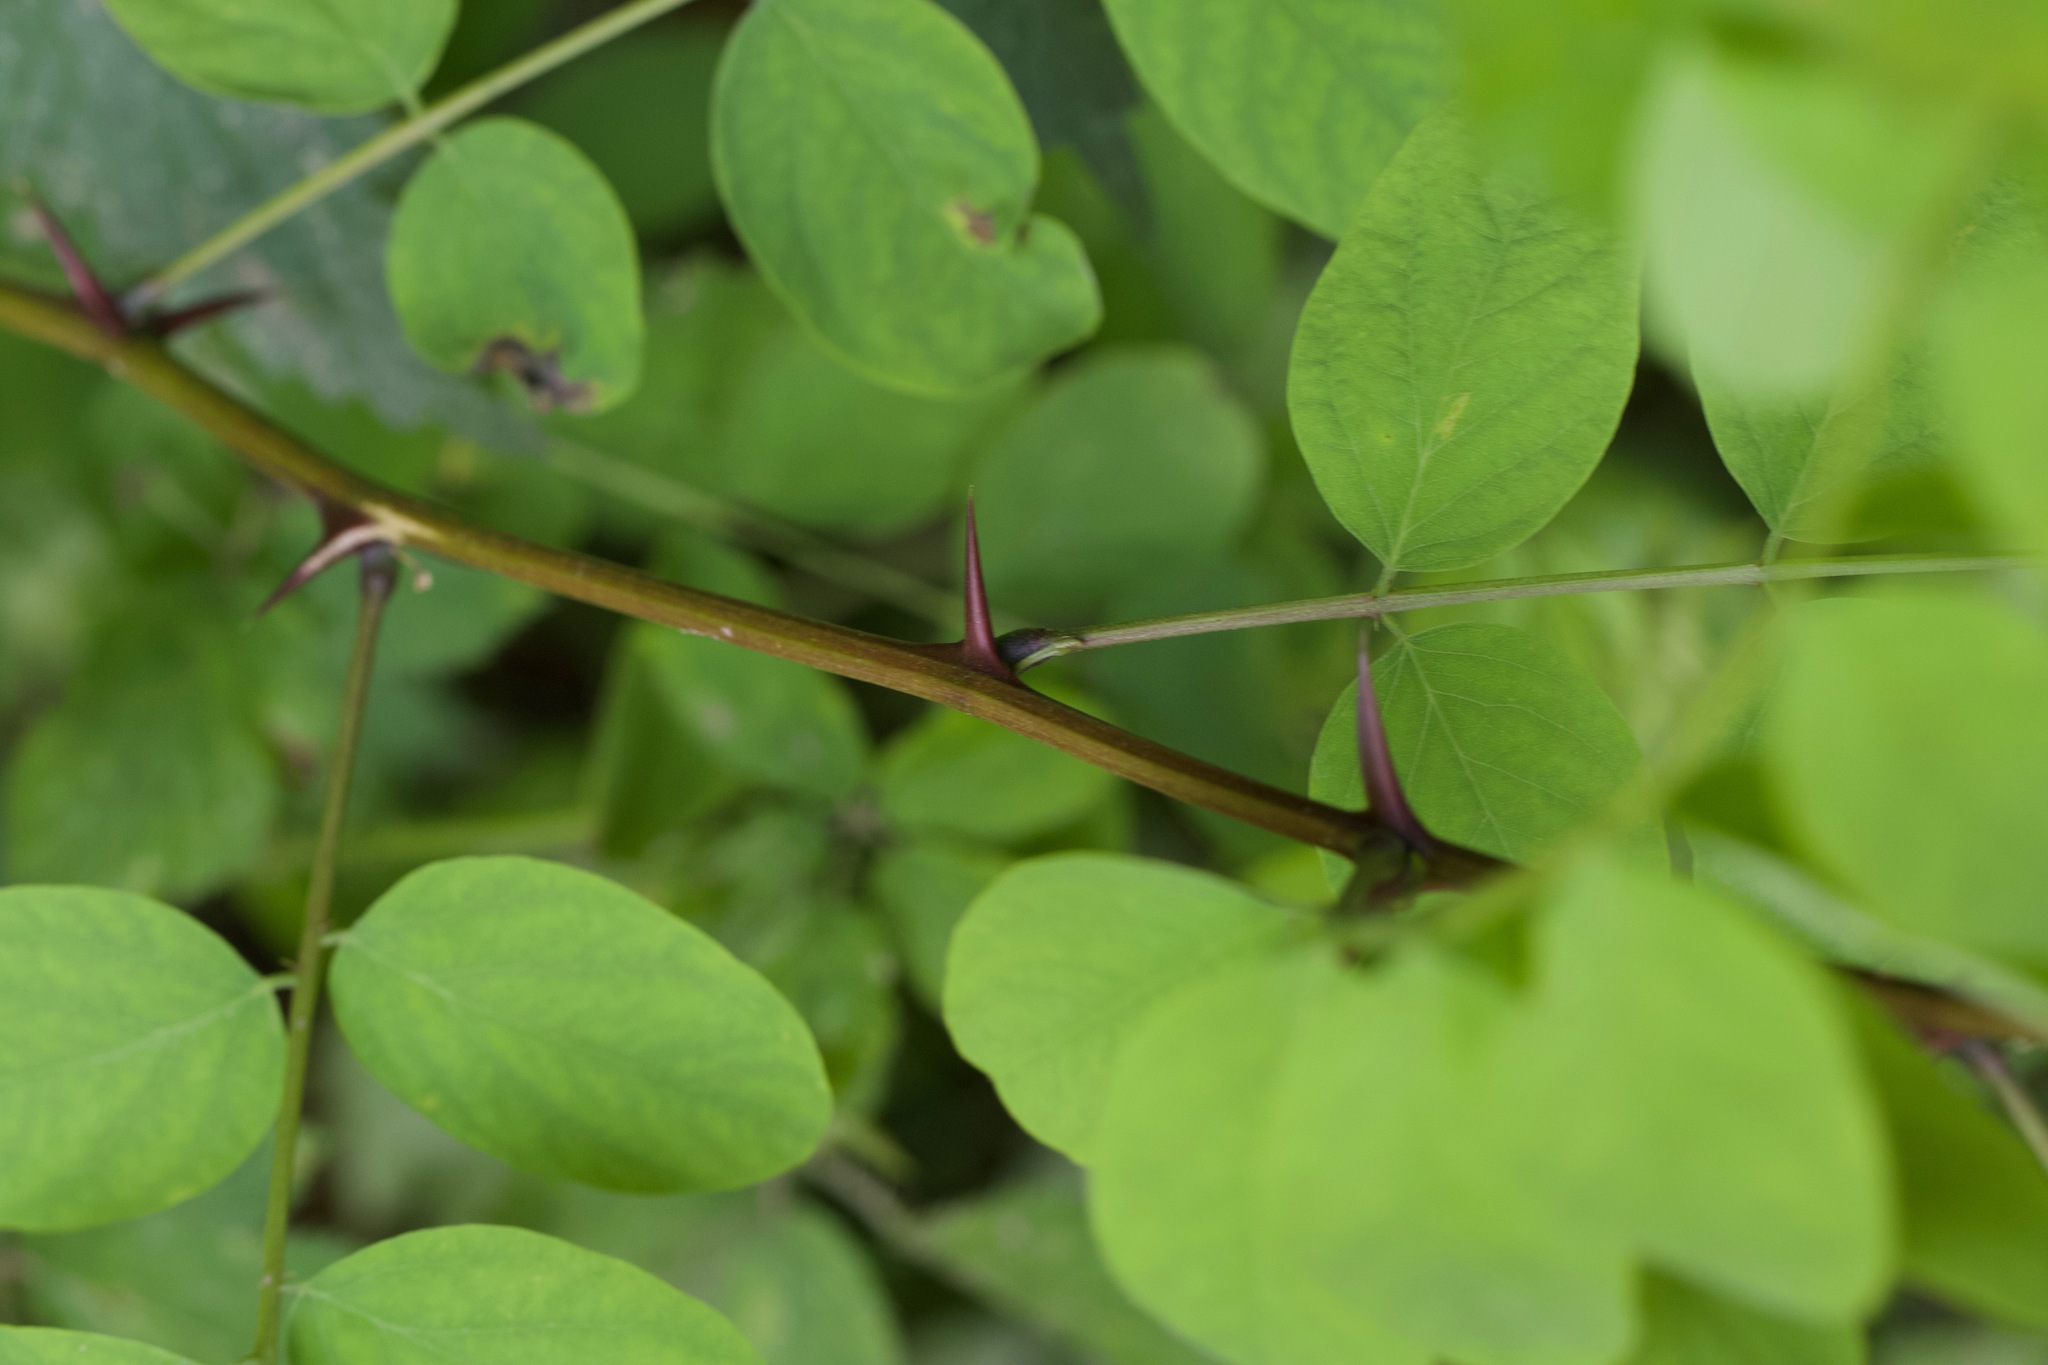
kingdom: Plantae
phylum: Tracheophyta
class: Magnoliopsida
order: Fabales
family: Fabaceae
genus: Robinia
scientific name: Robinia pseudoacacia
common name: Black locust
